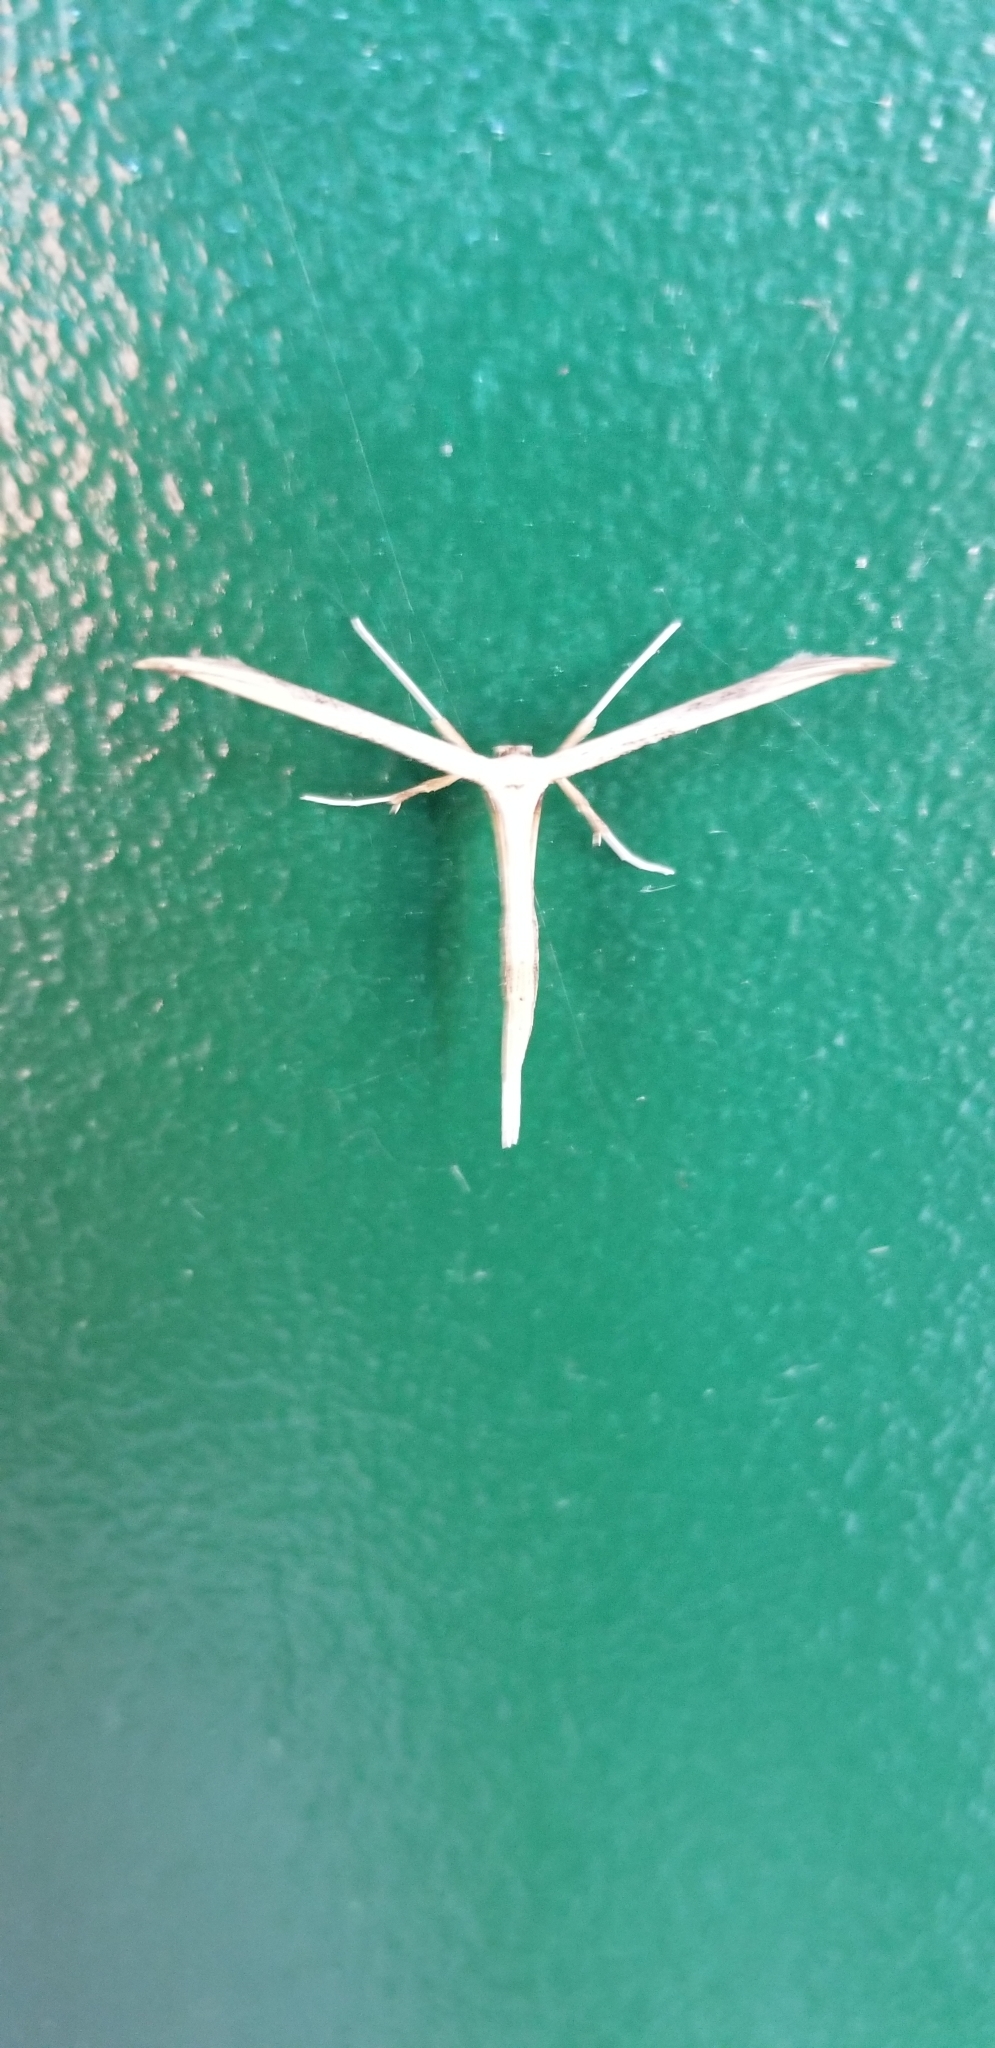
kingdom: Animalia
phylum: Arthropoda
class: Insecta
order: Lepidoptera
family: Pterophoridae
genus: Hellinsia
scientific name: Hellinsia homodactylus
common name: Plain plume moth
